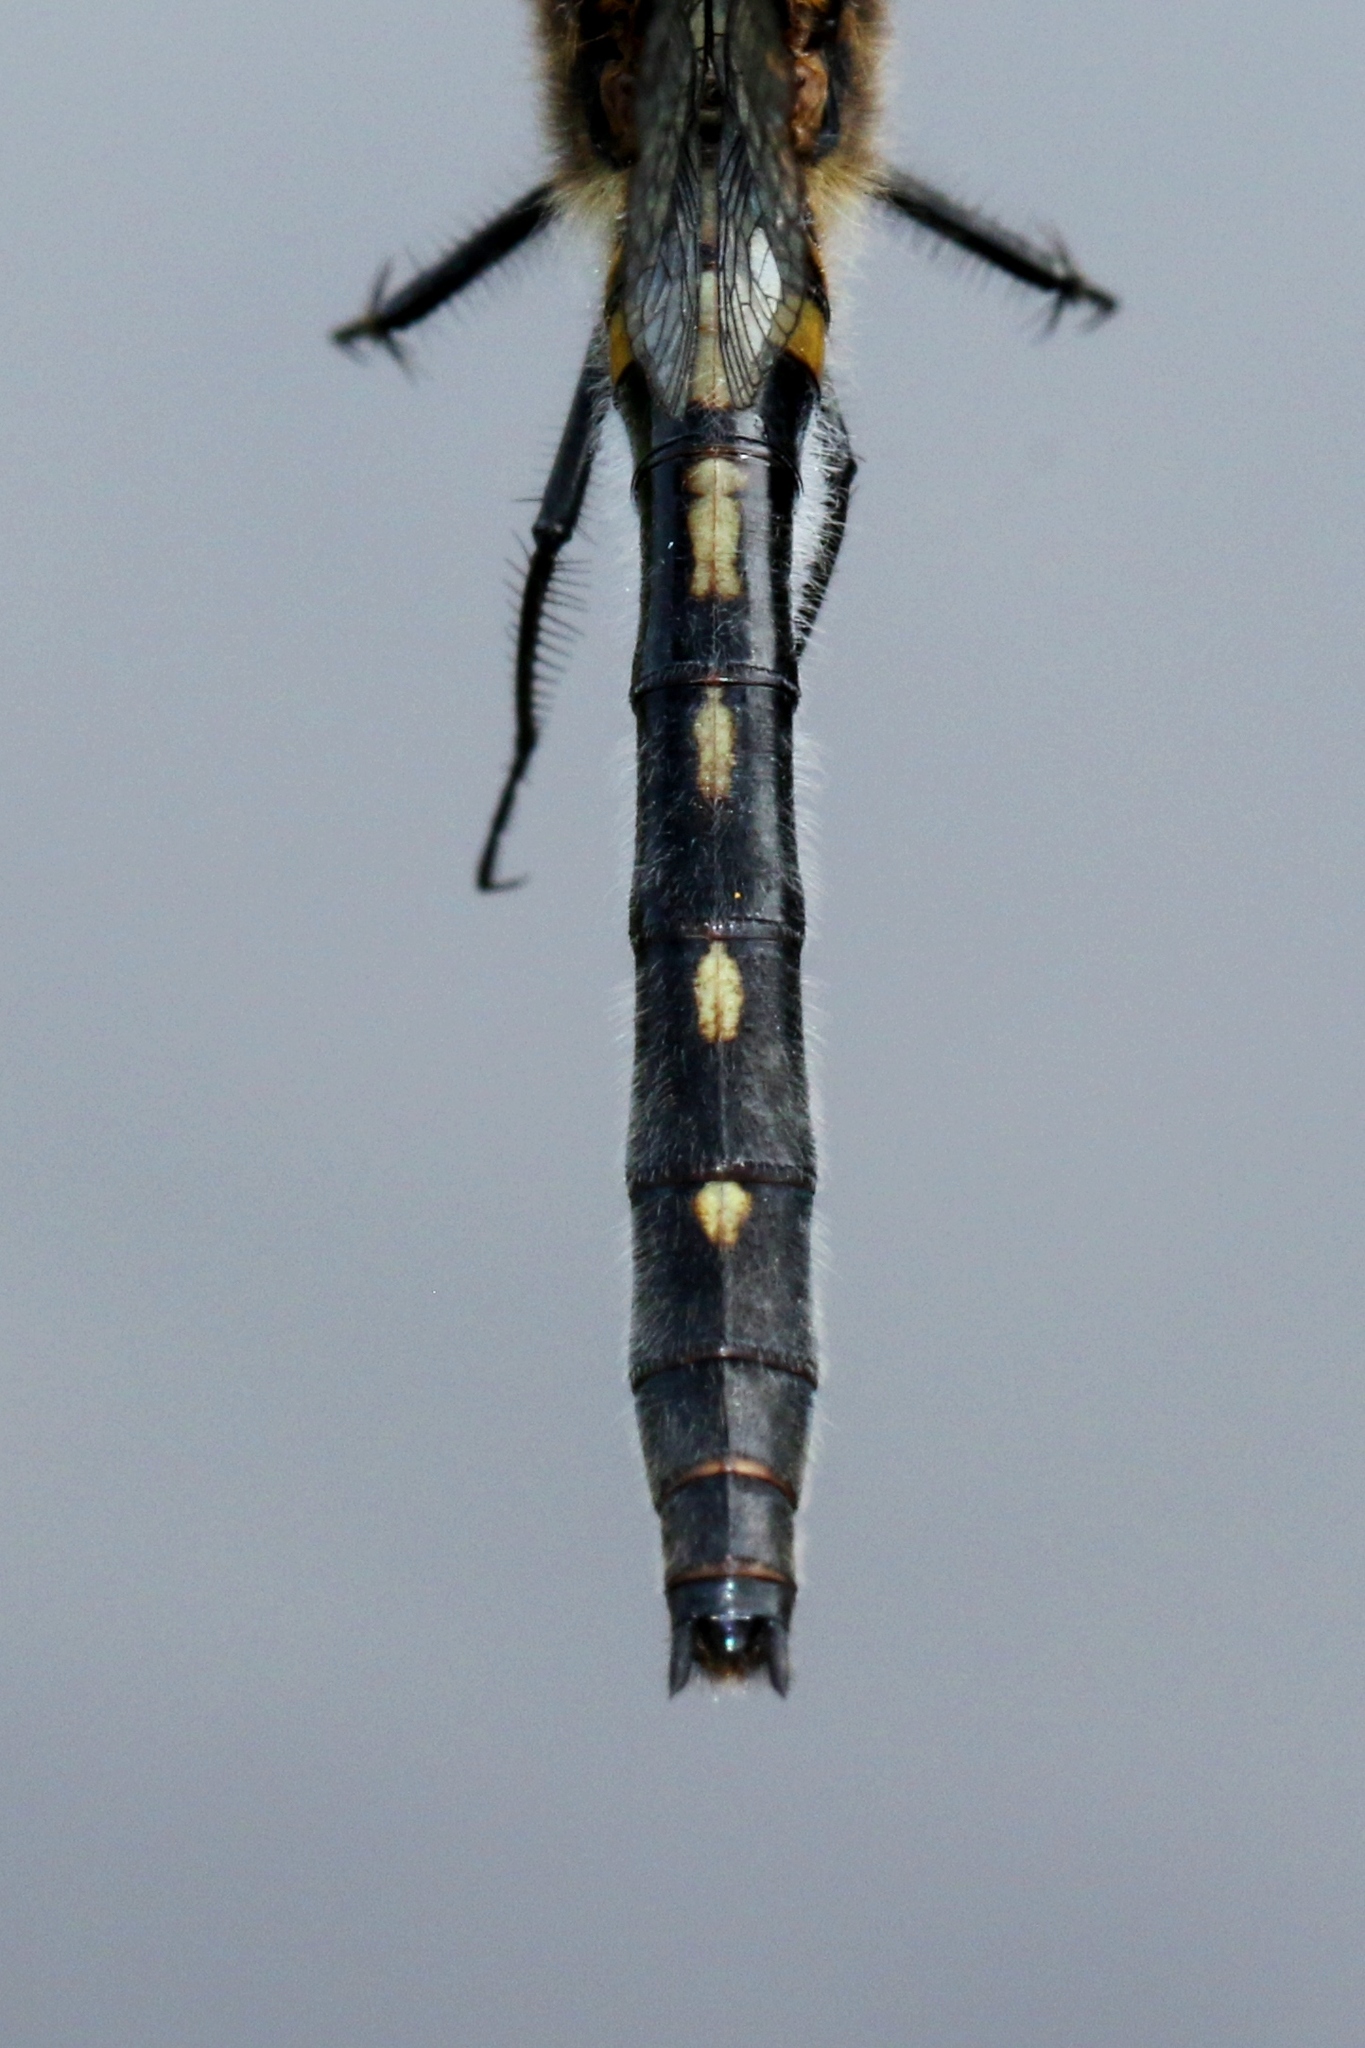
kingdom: Animalia
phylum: Arthropoda
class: Insecta
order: Odonata
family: Libellulidae
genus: Leucorrhinia
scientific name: Leucorrhinia glacialis
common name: Crimson-ringed whiteface
